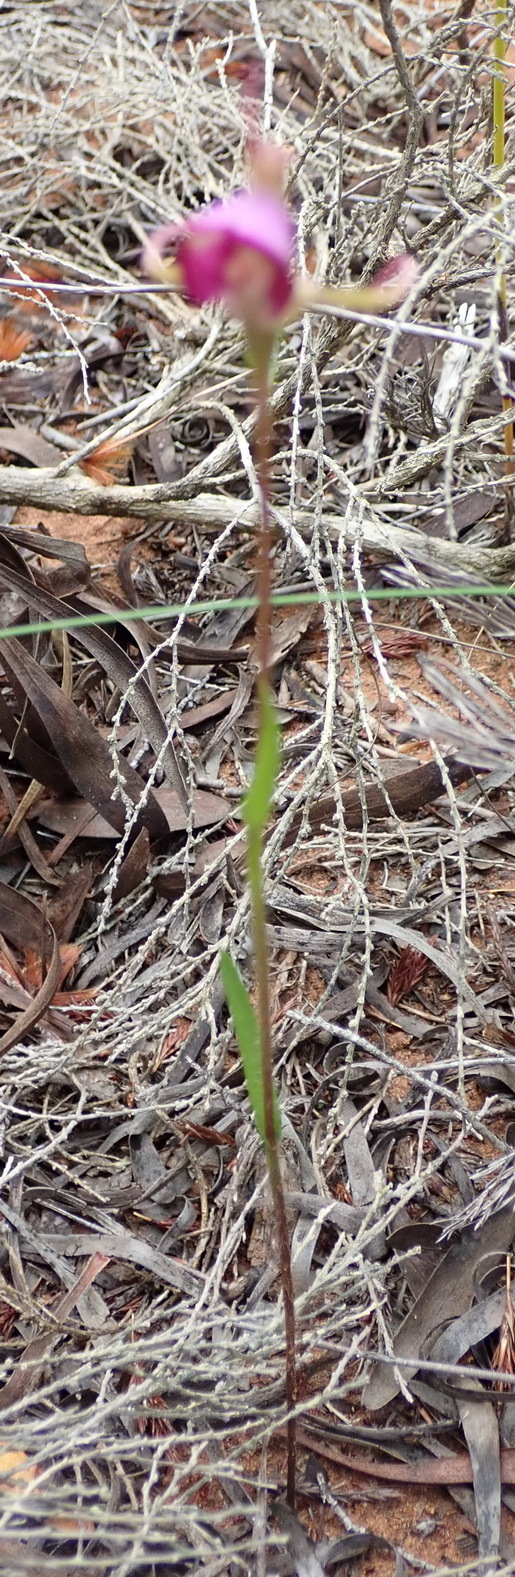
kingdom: Plantae
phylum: Tracheophyta
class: Liliopsida
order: Asparagales
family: Orchidaceae
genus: Disperis
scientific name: Disperis capensis
